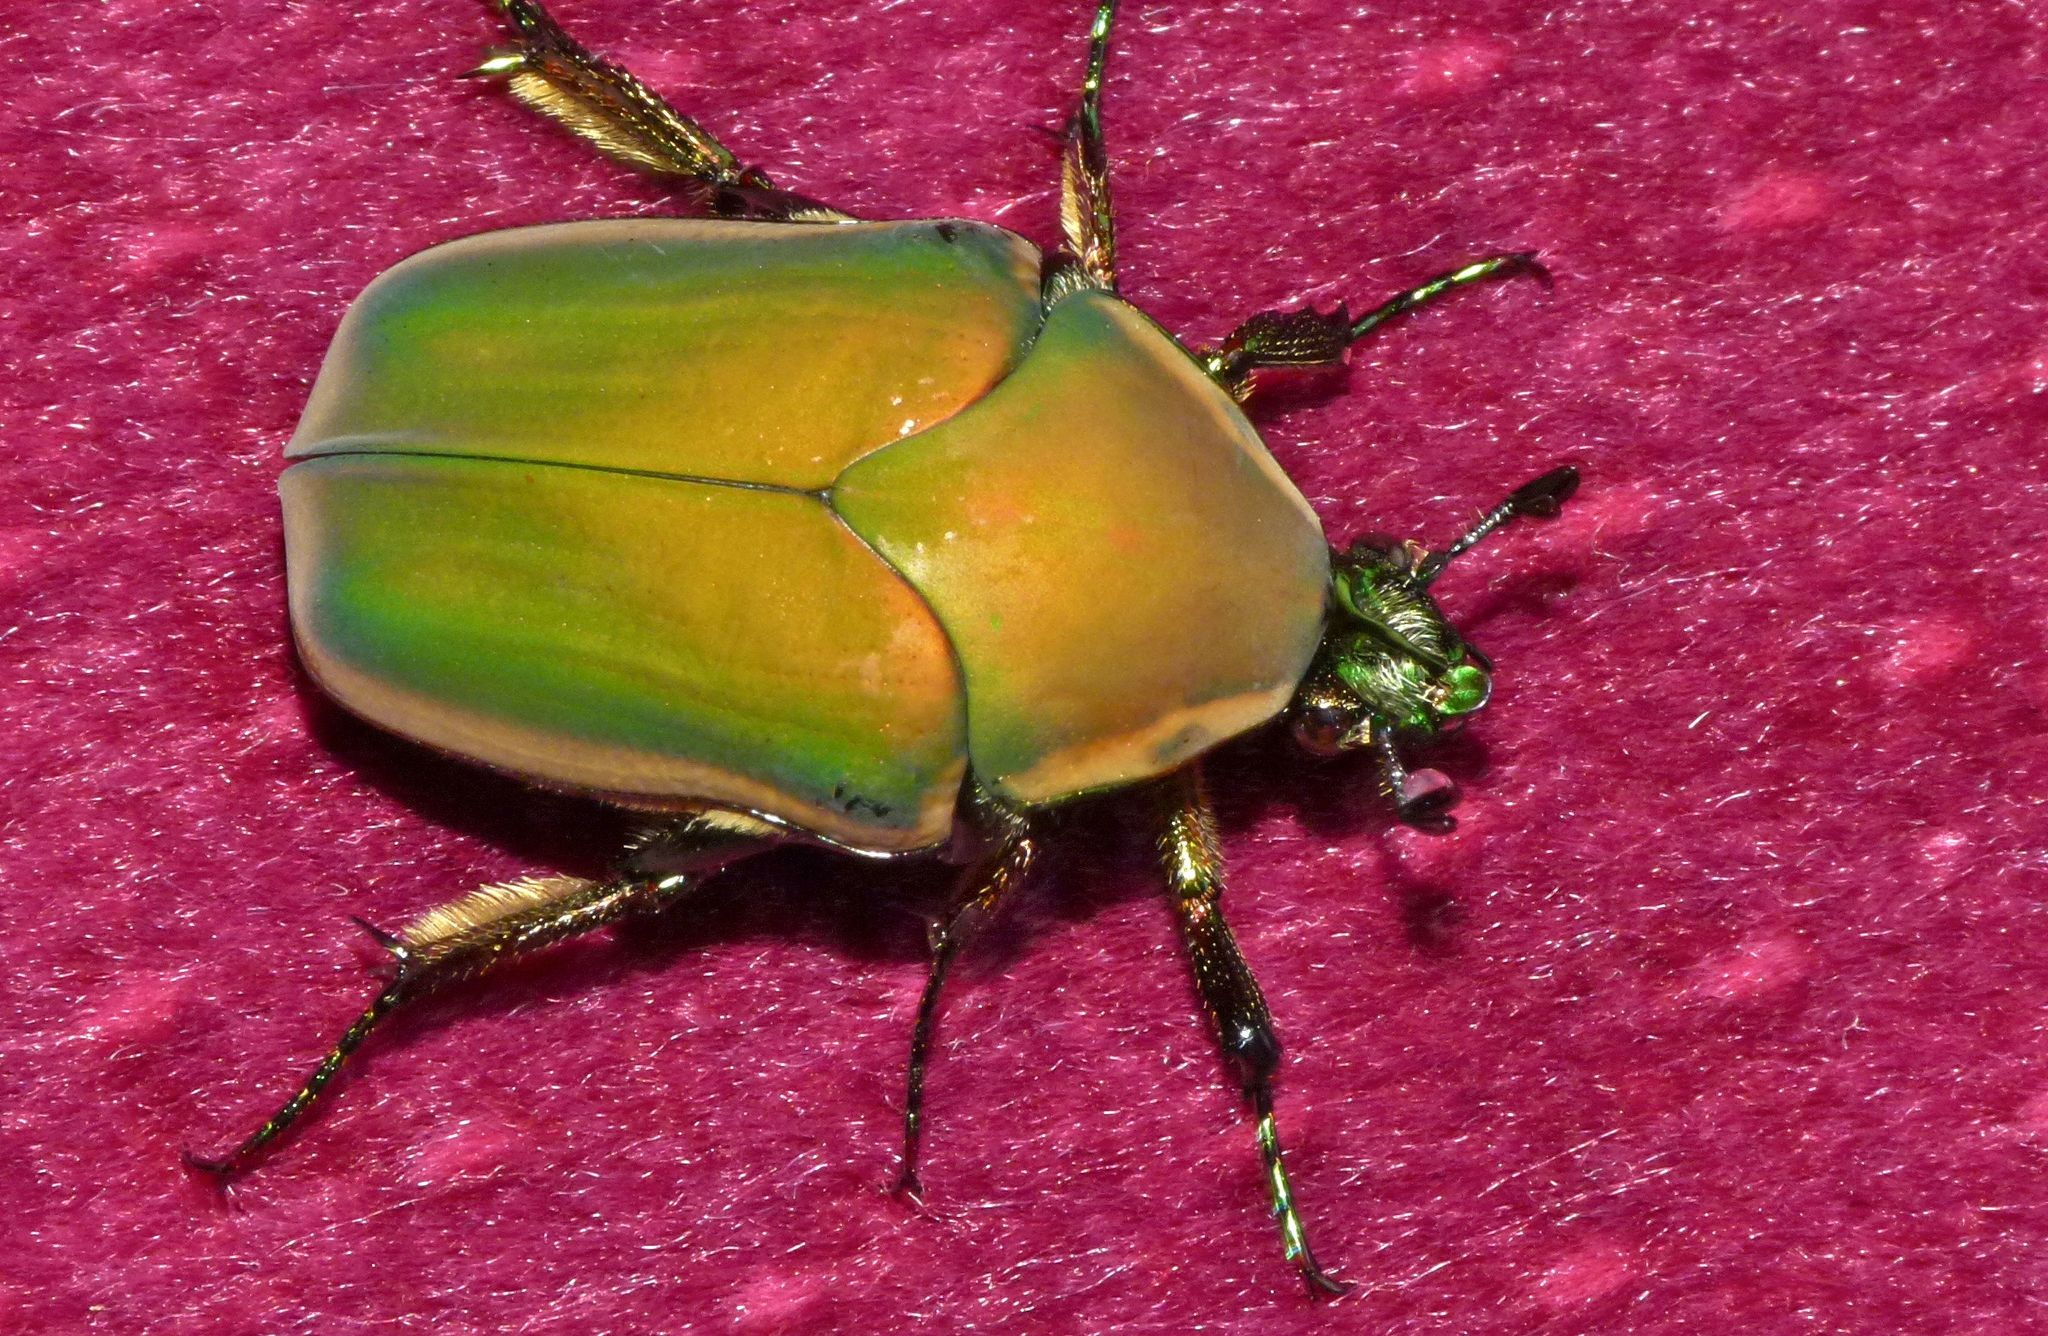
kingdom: Animalia
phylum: Arthropoda
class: Insecta
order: Coleoptera
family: Scarabaeidae
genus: Cotinis
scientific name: Cotinis nitida
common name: Common green june beetle
